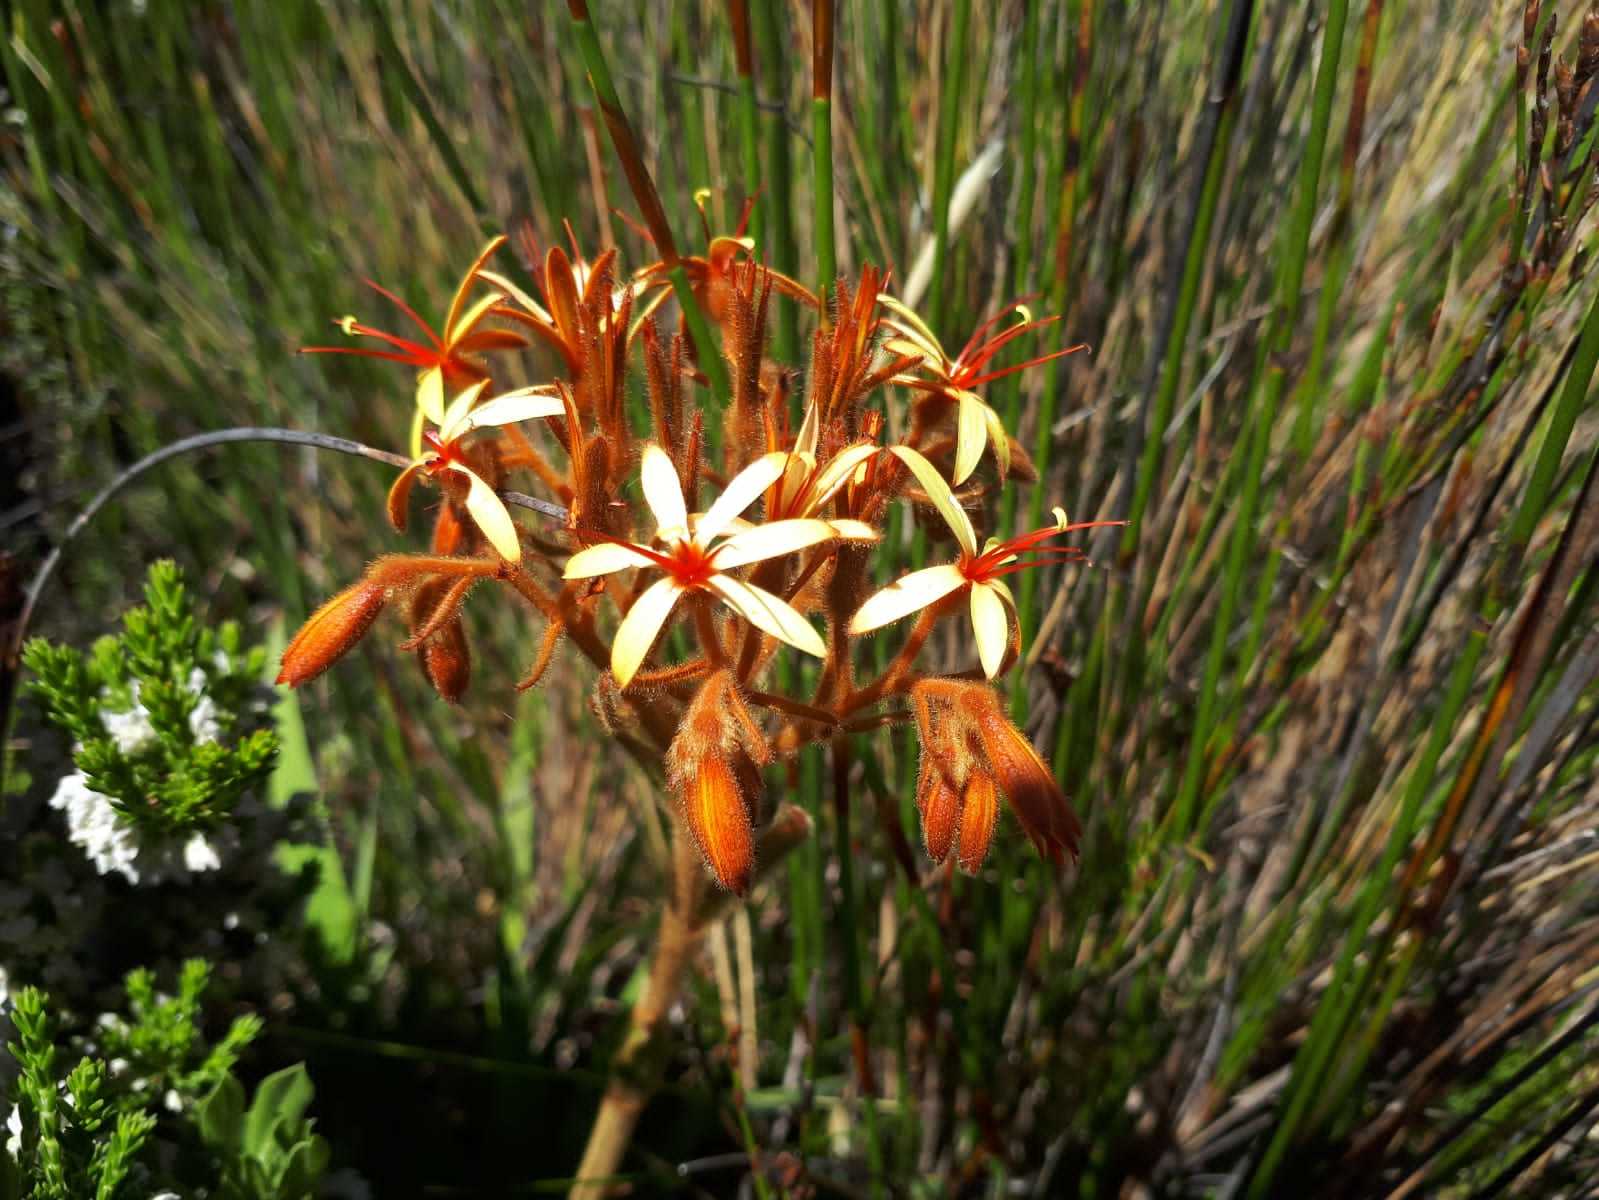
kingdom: Plantae
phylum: Tracheophyta
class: Liliopsida
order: Commelinales
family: Haemodoraceae
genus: Dilatris
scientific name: Dilatris viscosa
